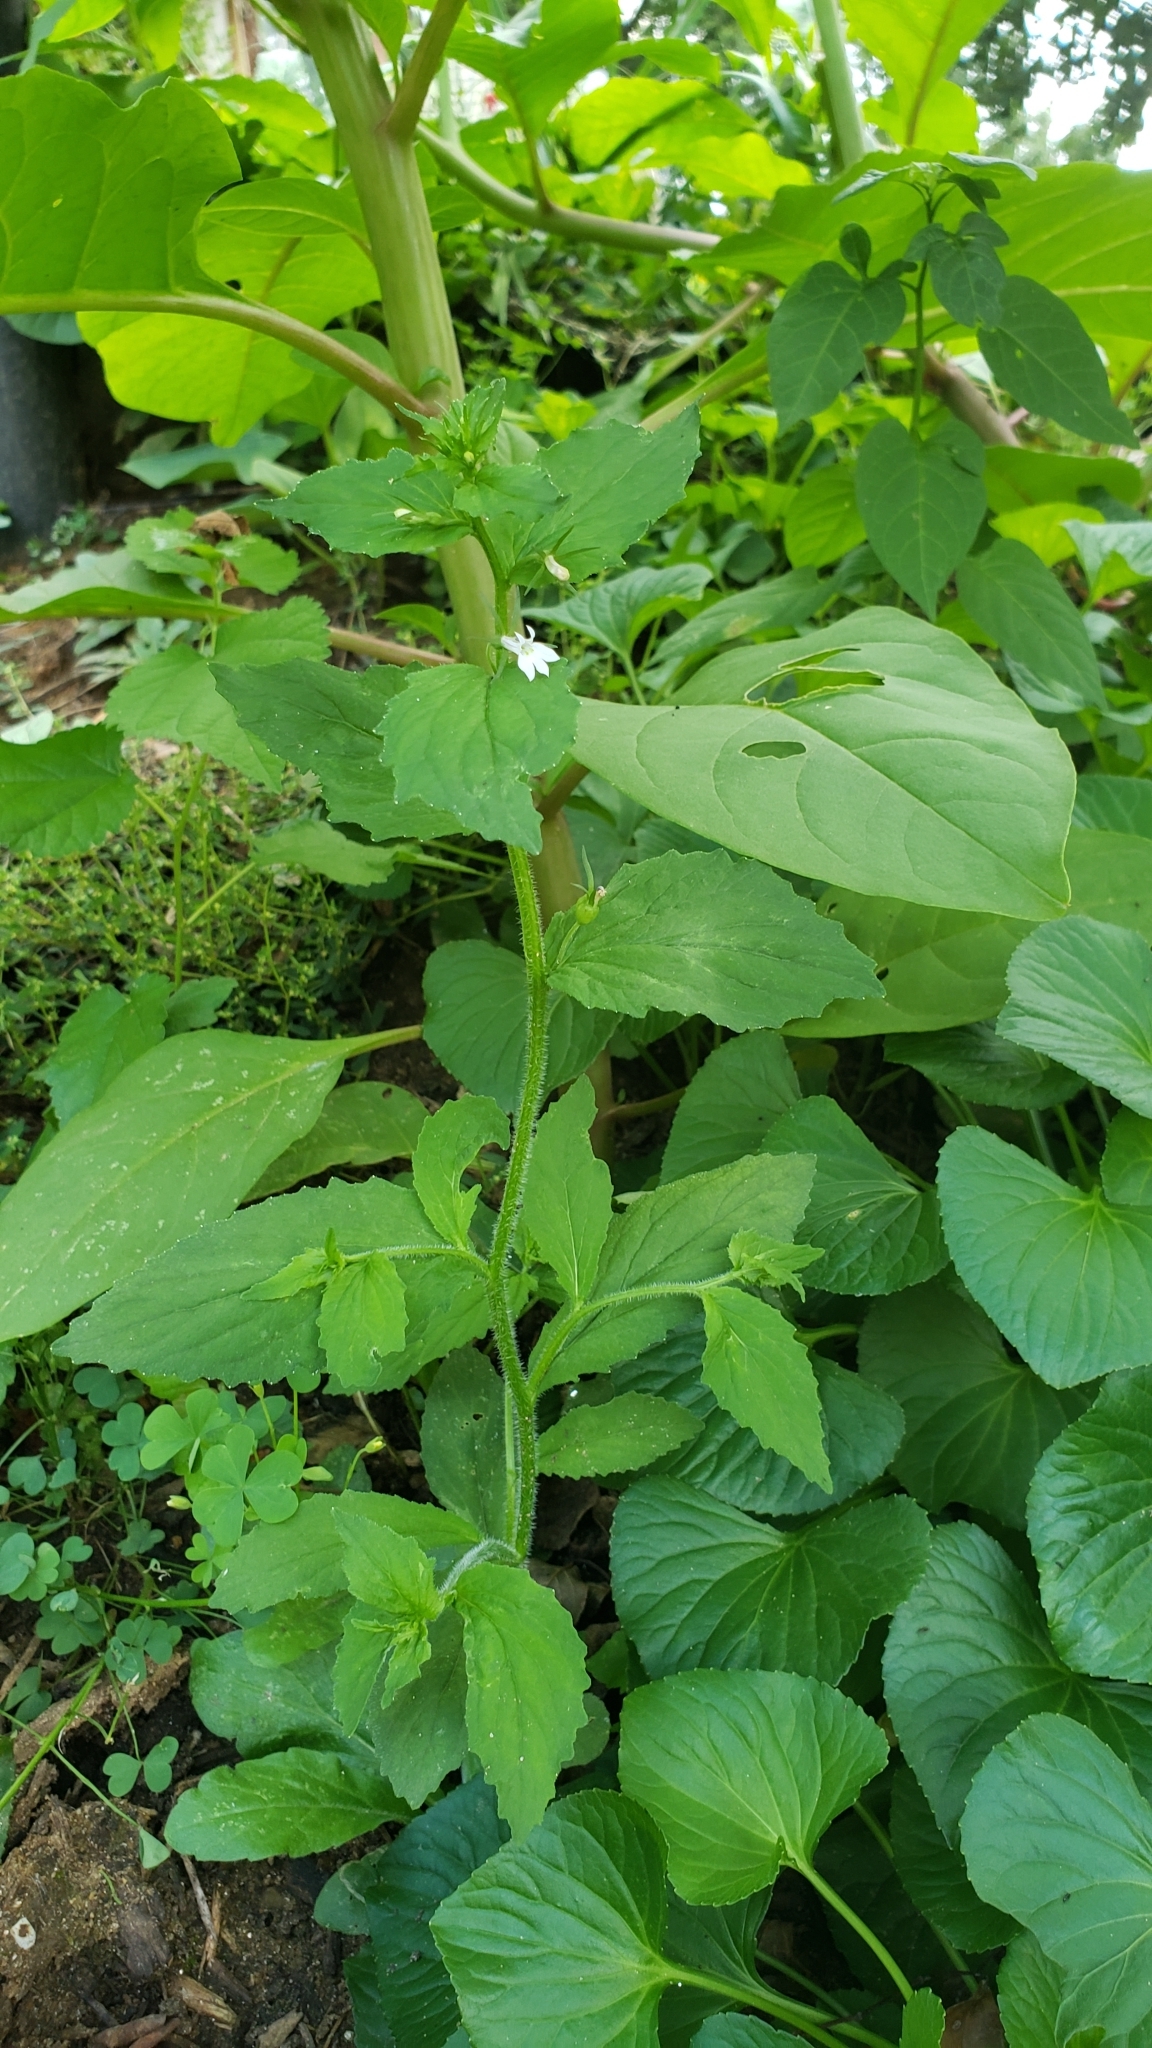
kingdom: Plantae
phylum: Tracheophyta
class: Magnoliopsida
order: Asterales
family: Campanulaceae
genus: Lobelia
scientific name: Lobelia inflata
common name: Indian tobacco
